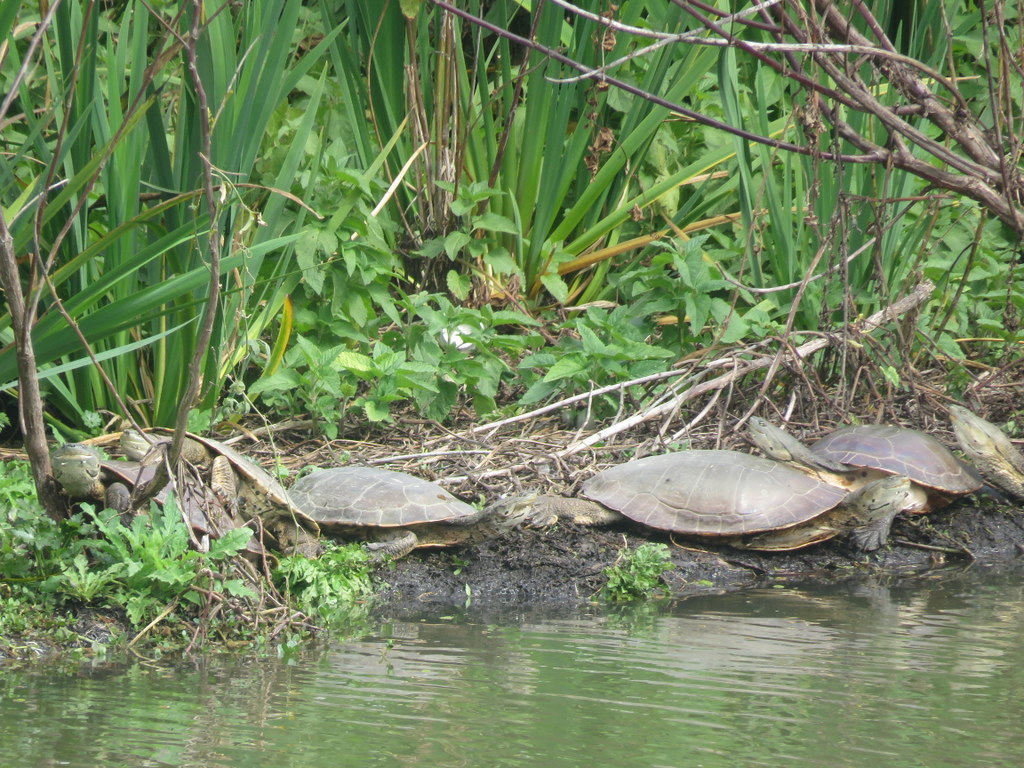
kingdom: Animalia
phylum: Chordata
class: Testudines
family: Chelidae
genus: Phrynops
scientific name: Phrynops hilarii
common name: Side-necked turtle of saint hillaire
